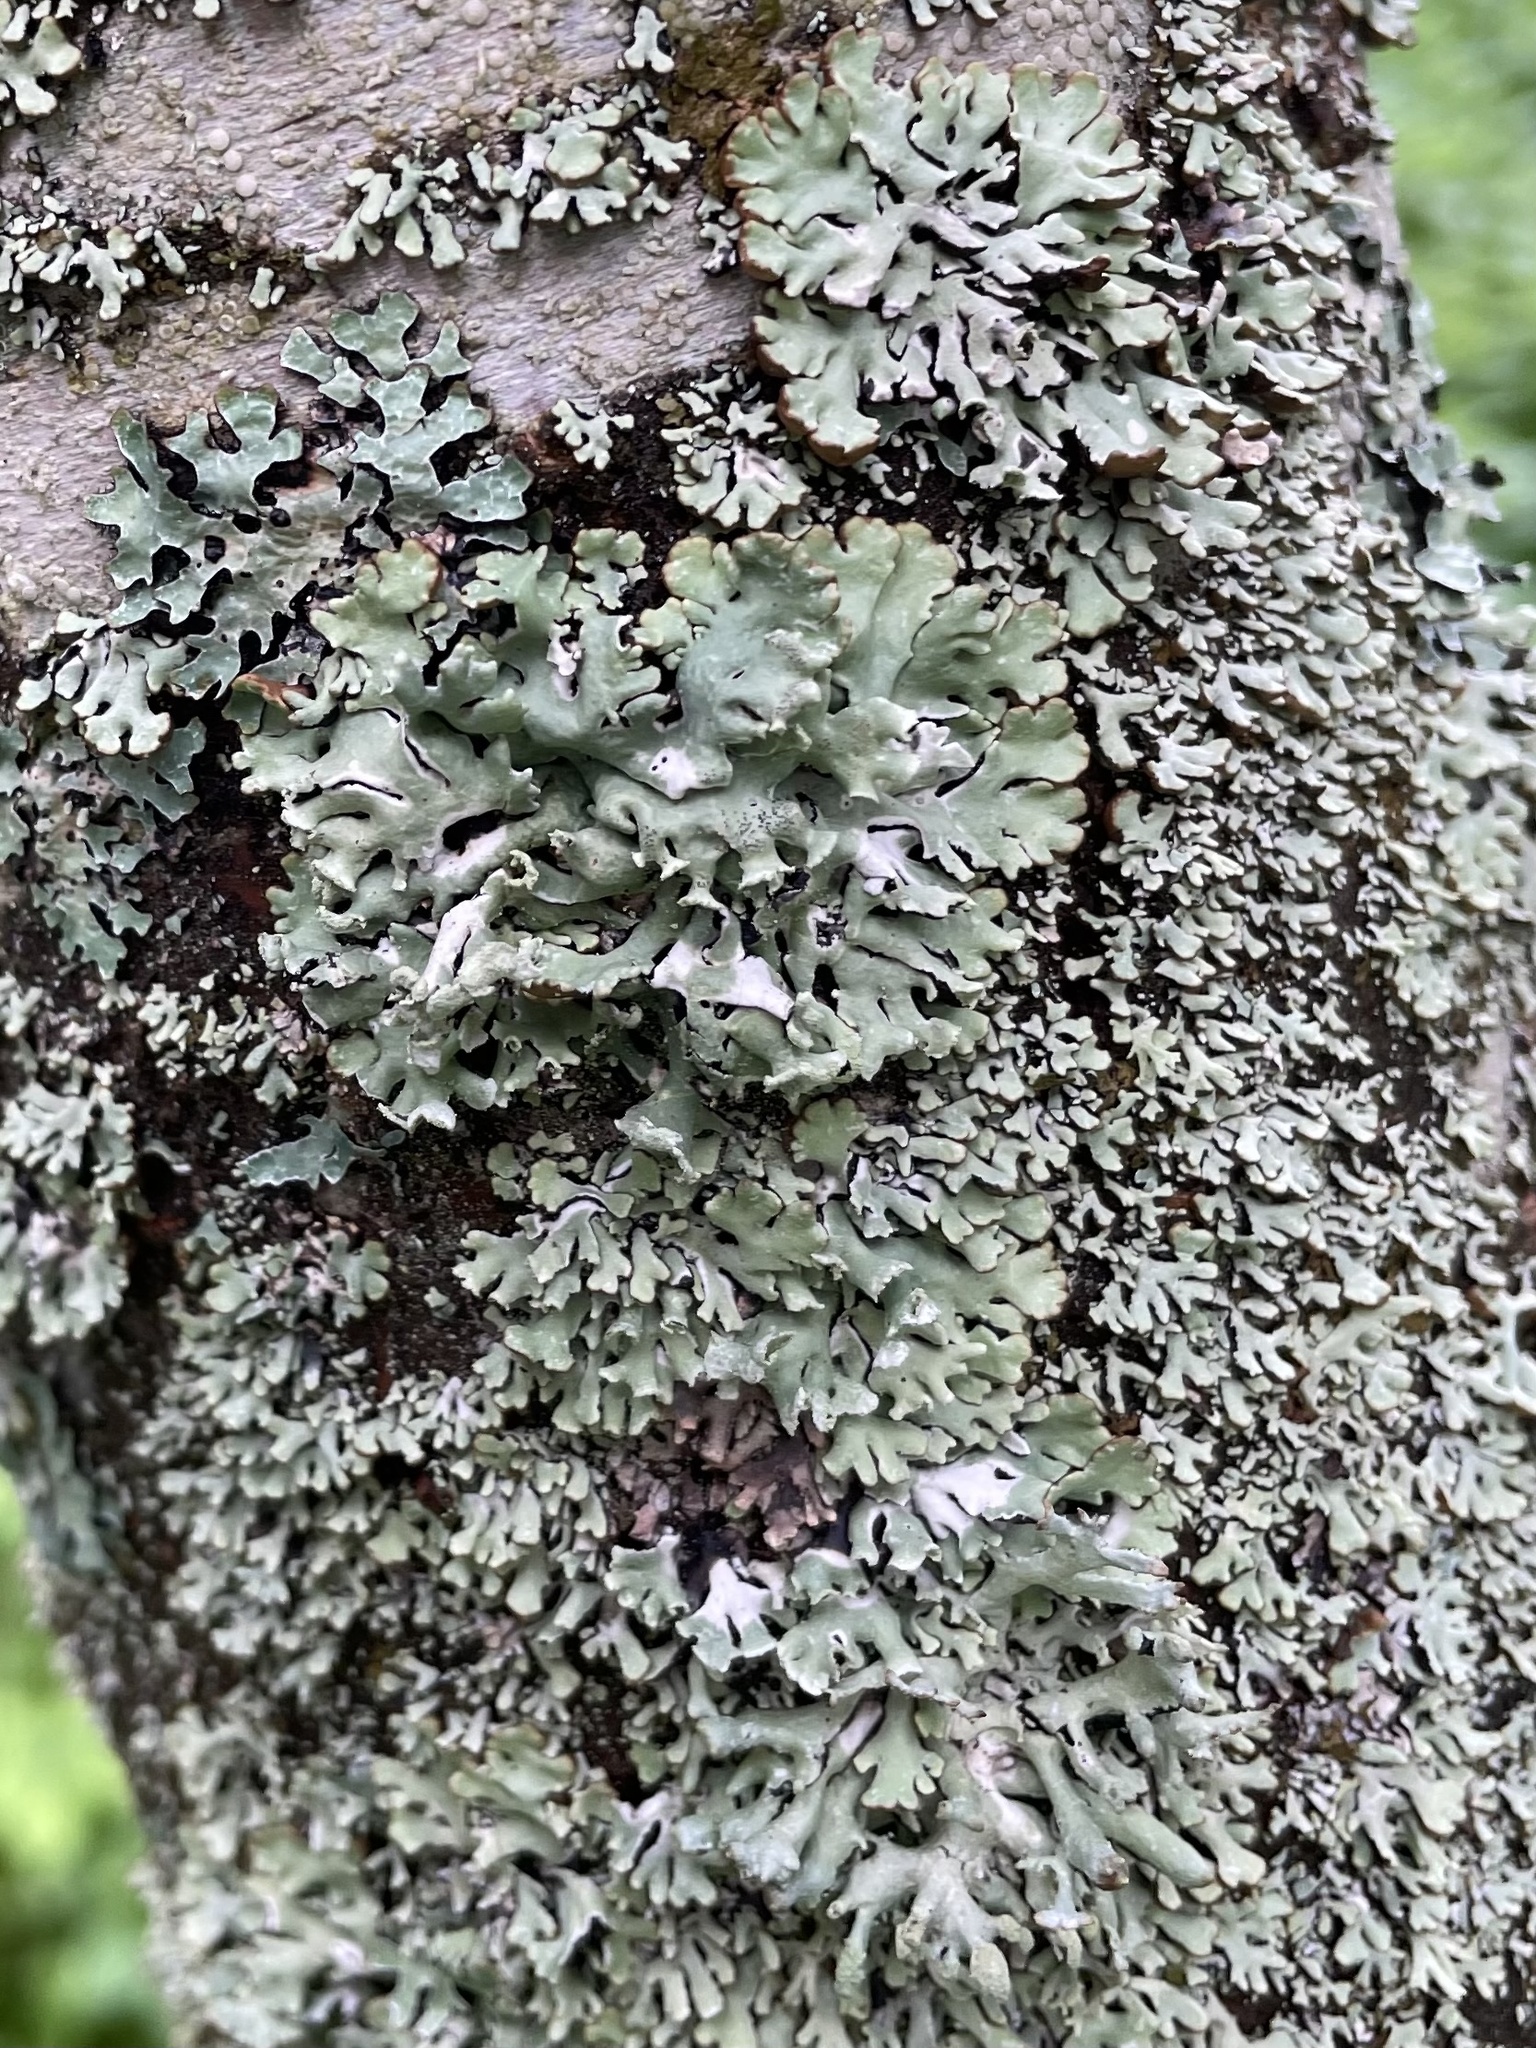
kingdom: Fungi
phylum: Ascomycota
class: Lecanoromycetes
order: Lecanorales
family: Parmeliaceae
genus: Hypogymnia
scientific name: Hypogymnia physodes
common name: Dark crottle
